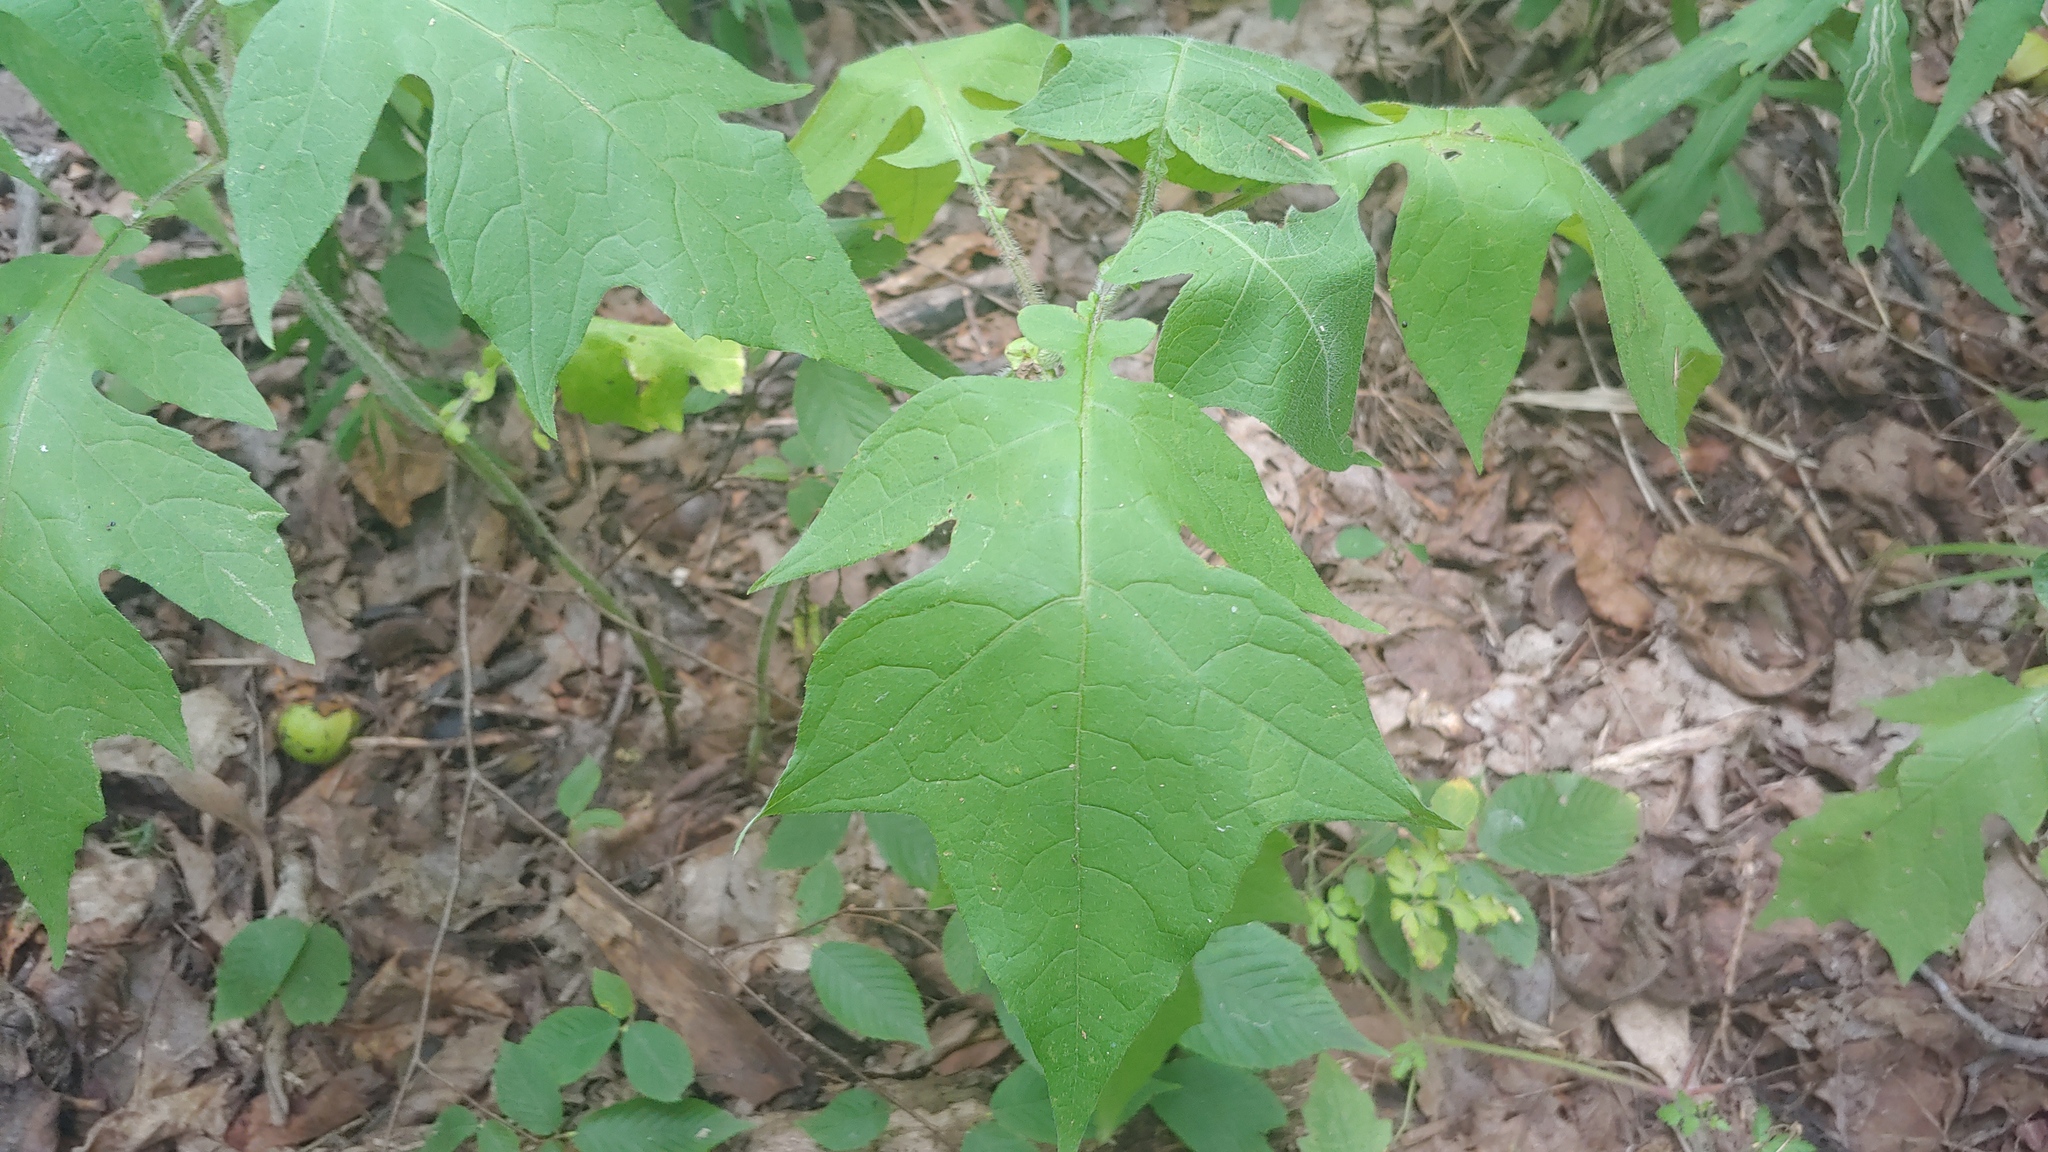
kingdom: Plantae
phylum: Tracheophyta
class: Magnoliopsida
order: Asterales
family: Asteraceae
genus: Polymnia
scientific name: Polymnia canadensis
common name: Pale-flowered leafcup
